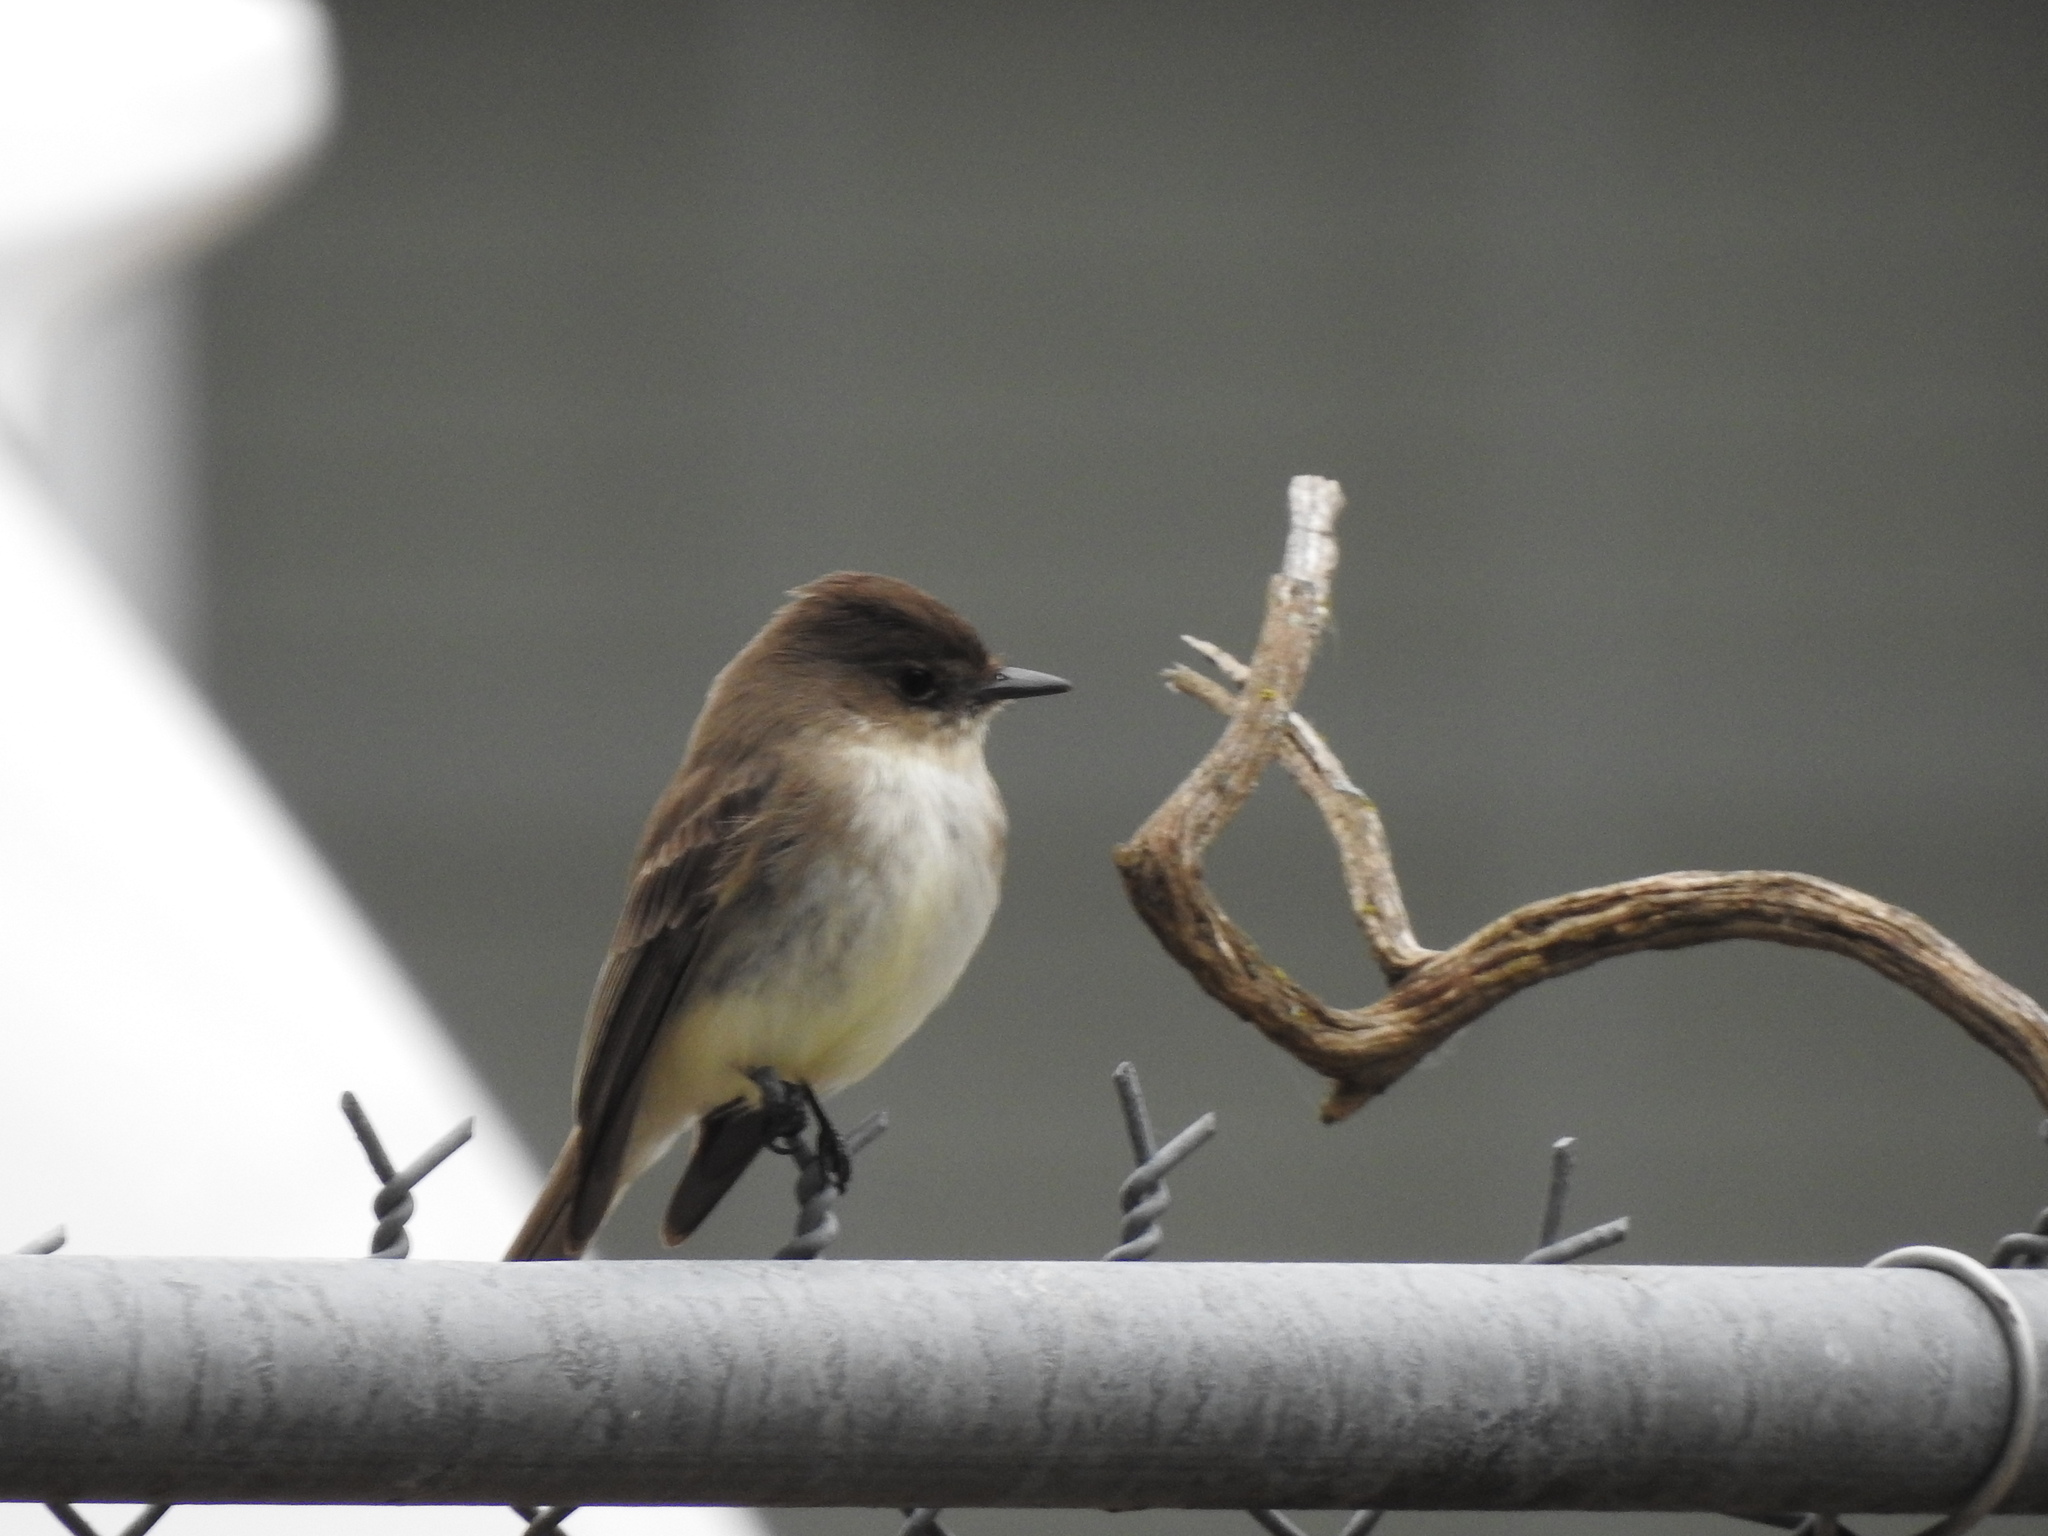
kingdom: Animalia
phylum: Chordata
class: Aves
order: Passeriformes
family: Tyrannidae
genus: Sayornis
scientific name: Sayornis phoebe
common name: Eastern phoebe
